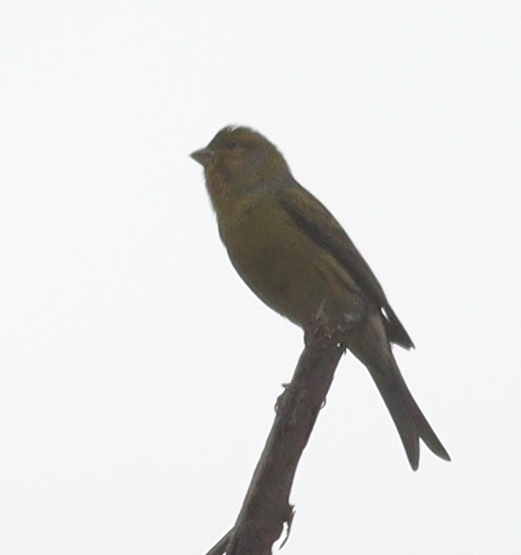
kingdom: Animalia
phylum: Chordata
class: Aves
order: Passeriformes
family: Fringillidae
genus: Serinus
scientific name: Serinus canaria
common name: Atlantic canary
